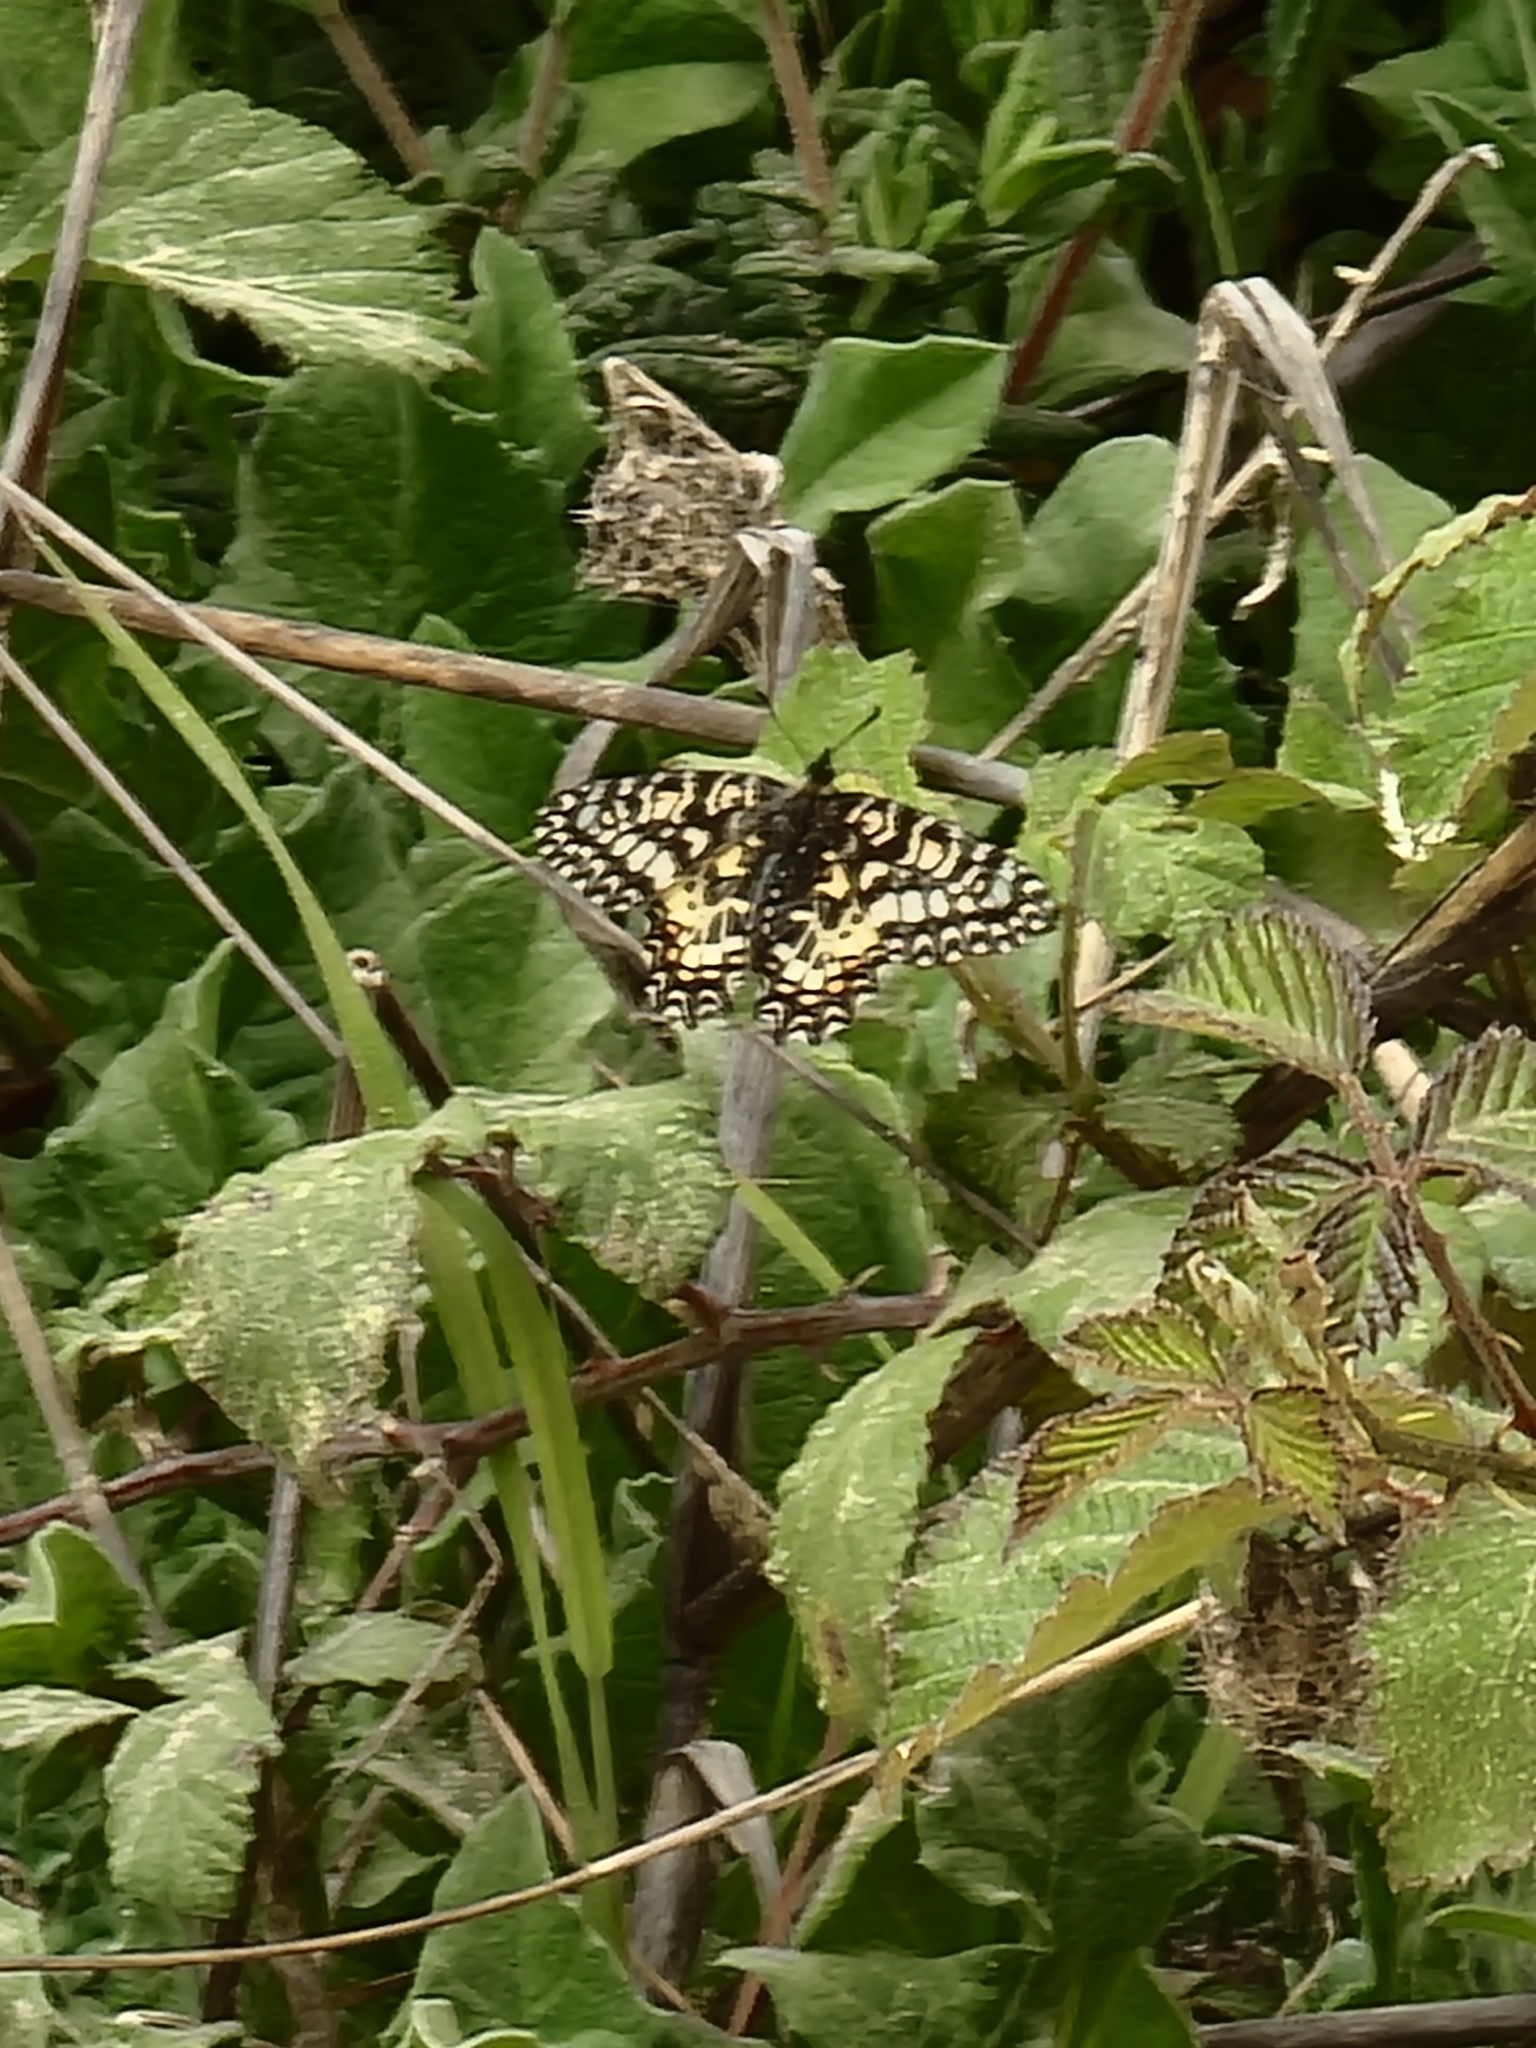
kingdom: Animalia
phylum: Arthropoda
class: Insecta
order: Lepidoptera
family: Papilionidae
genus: Zerynthia
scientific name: Zerynthia rumina
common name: Spanish festoon
